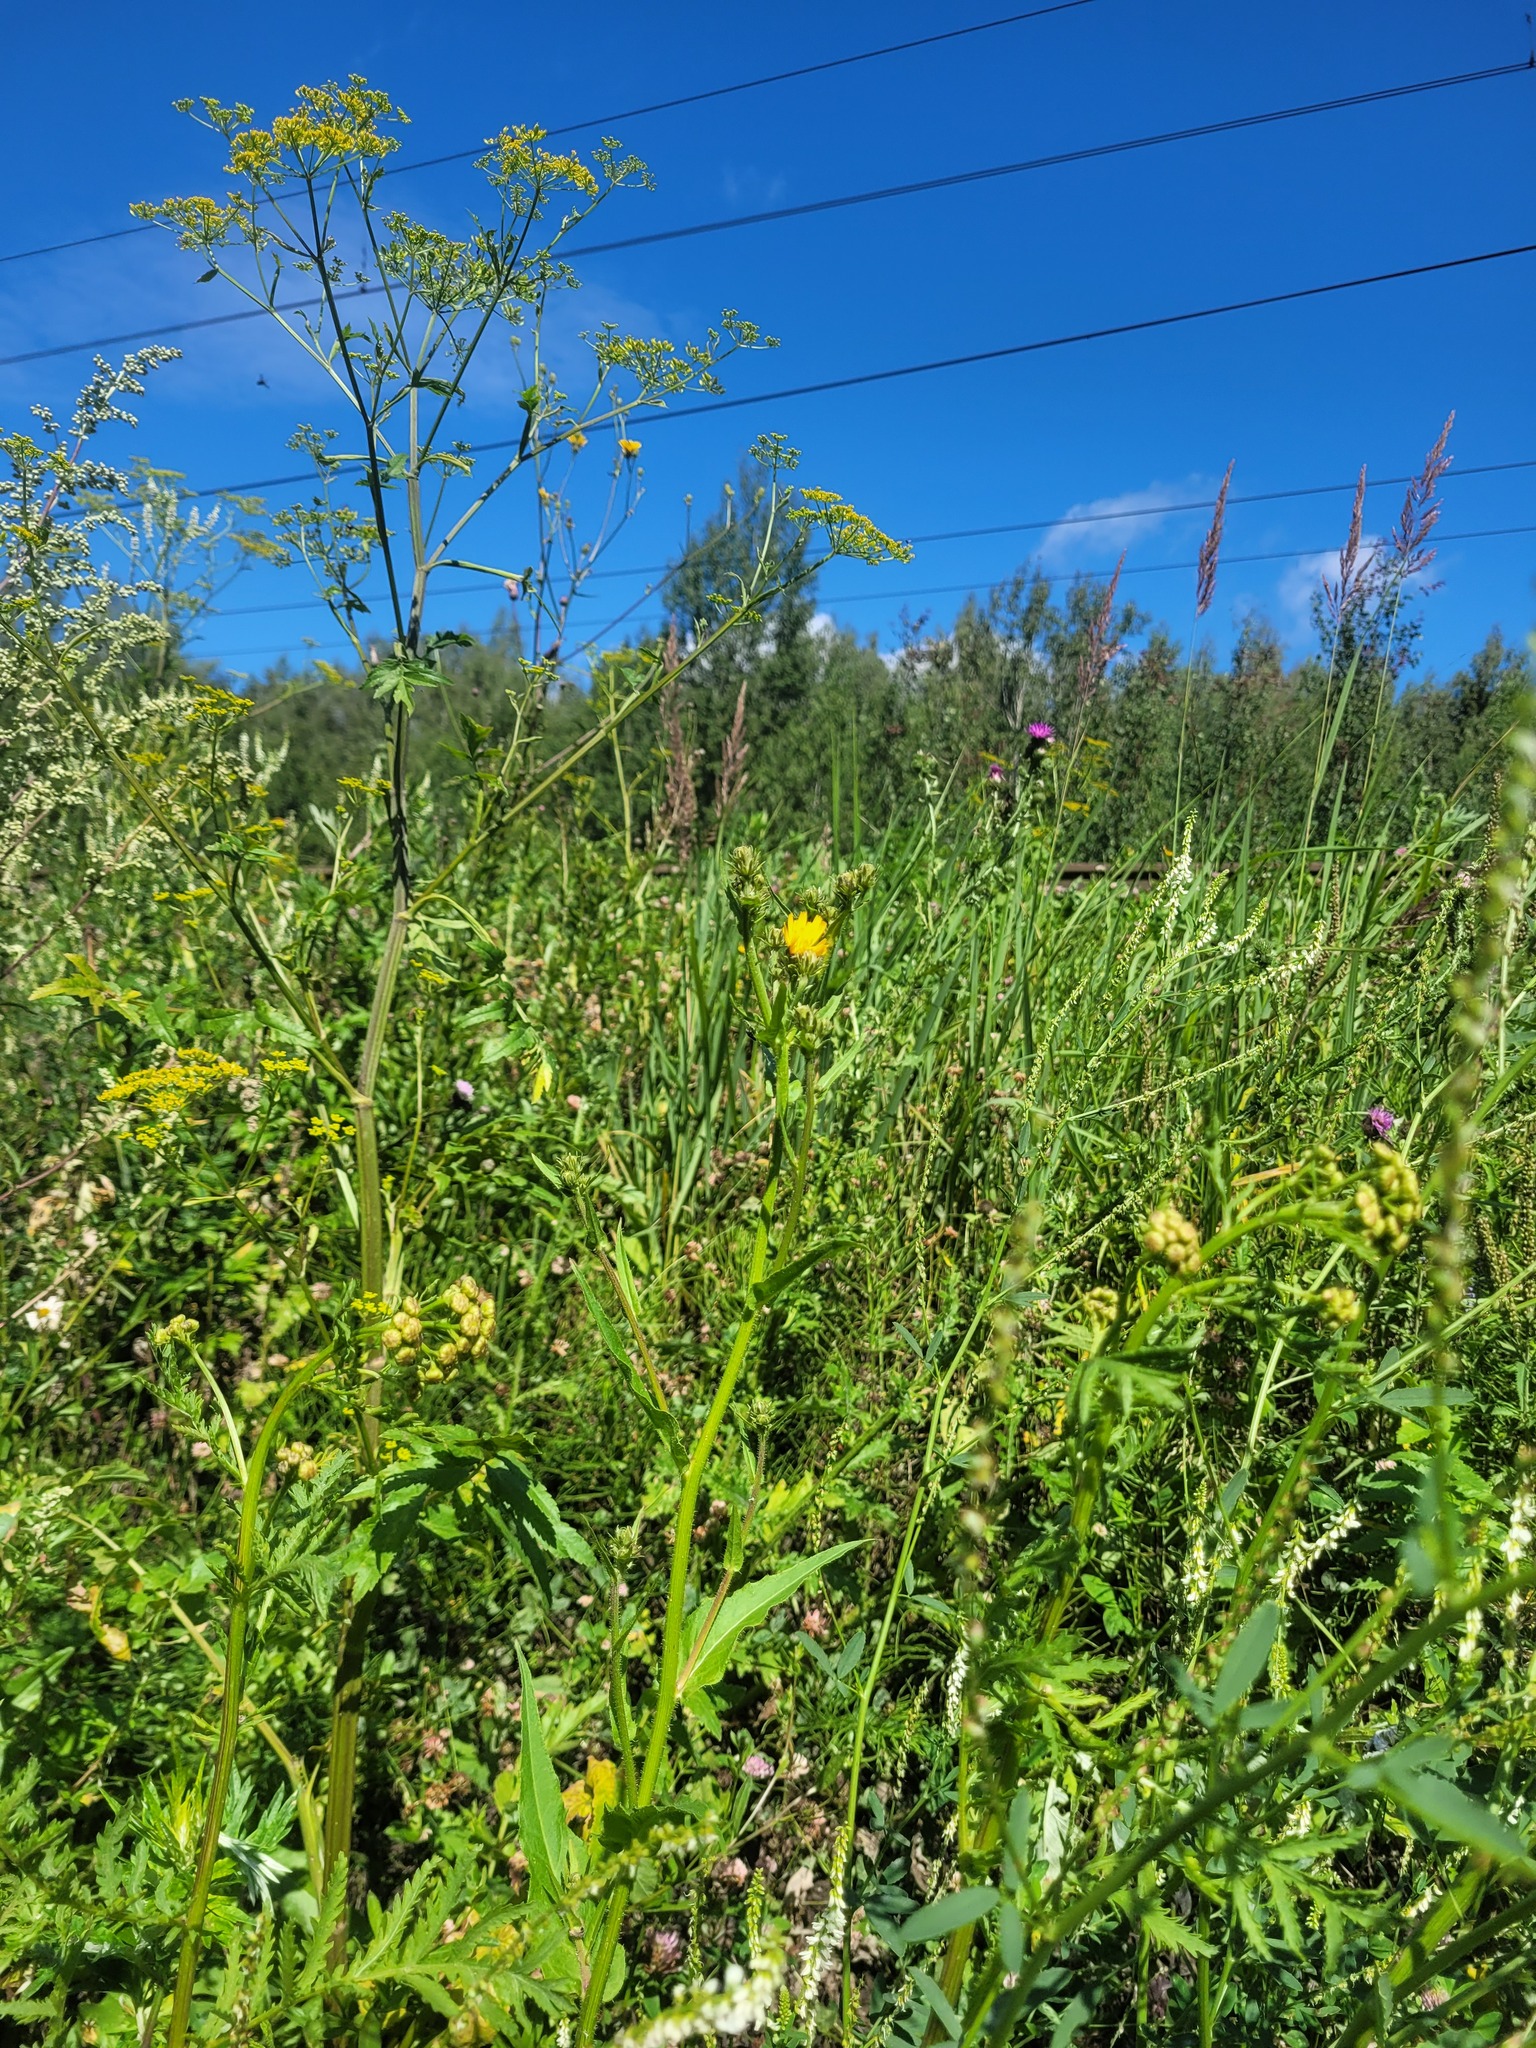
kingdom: Plantae
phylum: Tracheophyta
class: Magnoliopsida
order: Asterales
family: Asteraceae
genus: Picris
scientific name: Picris hieracioides
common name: Hawkweed oxtongue
